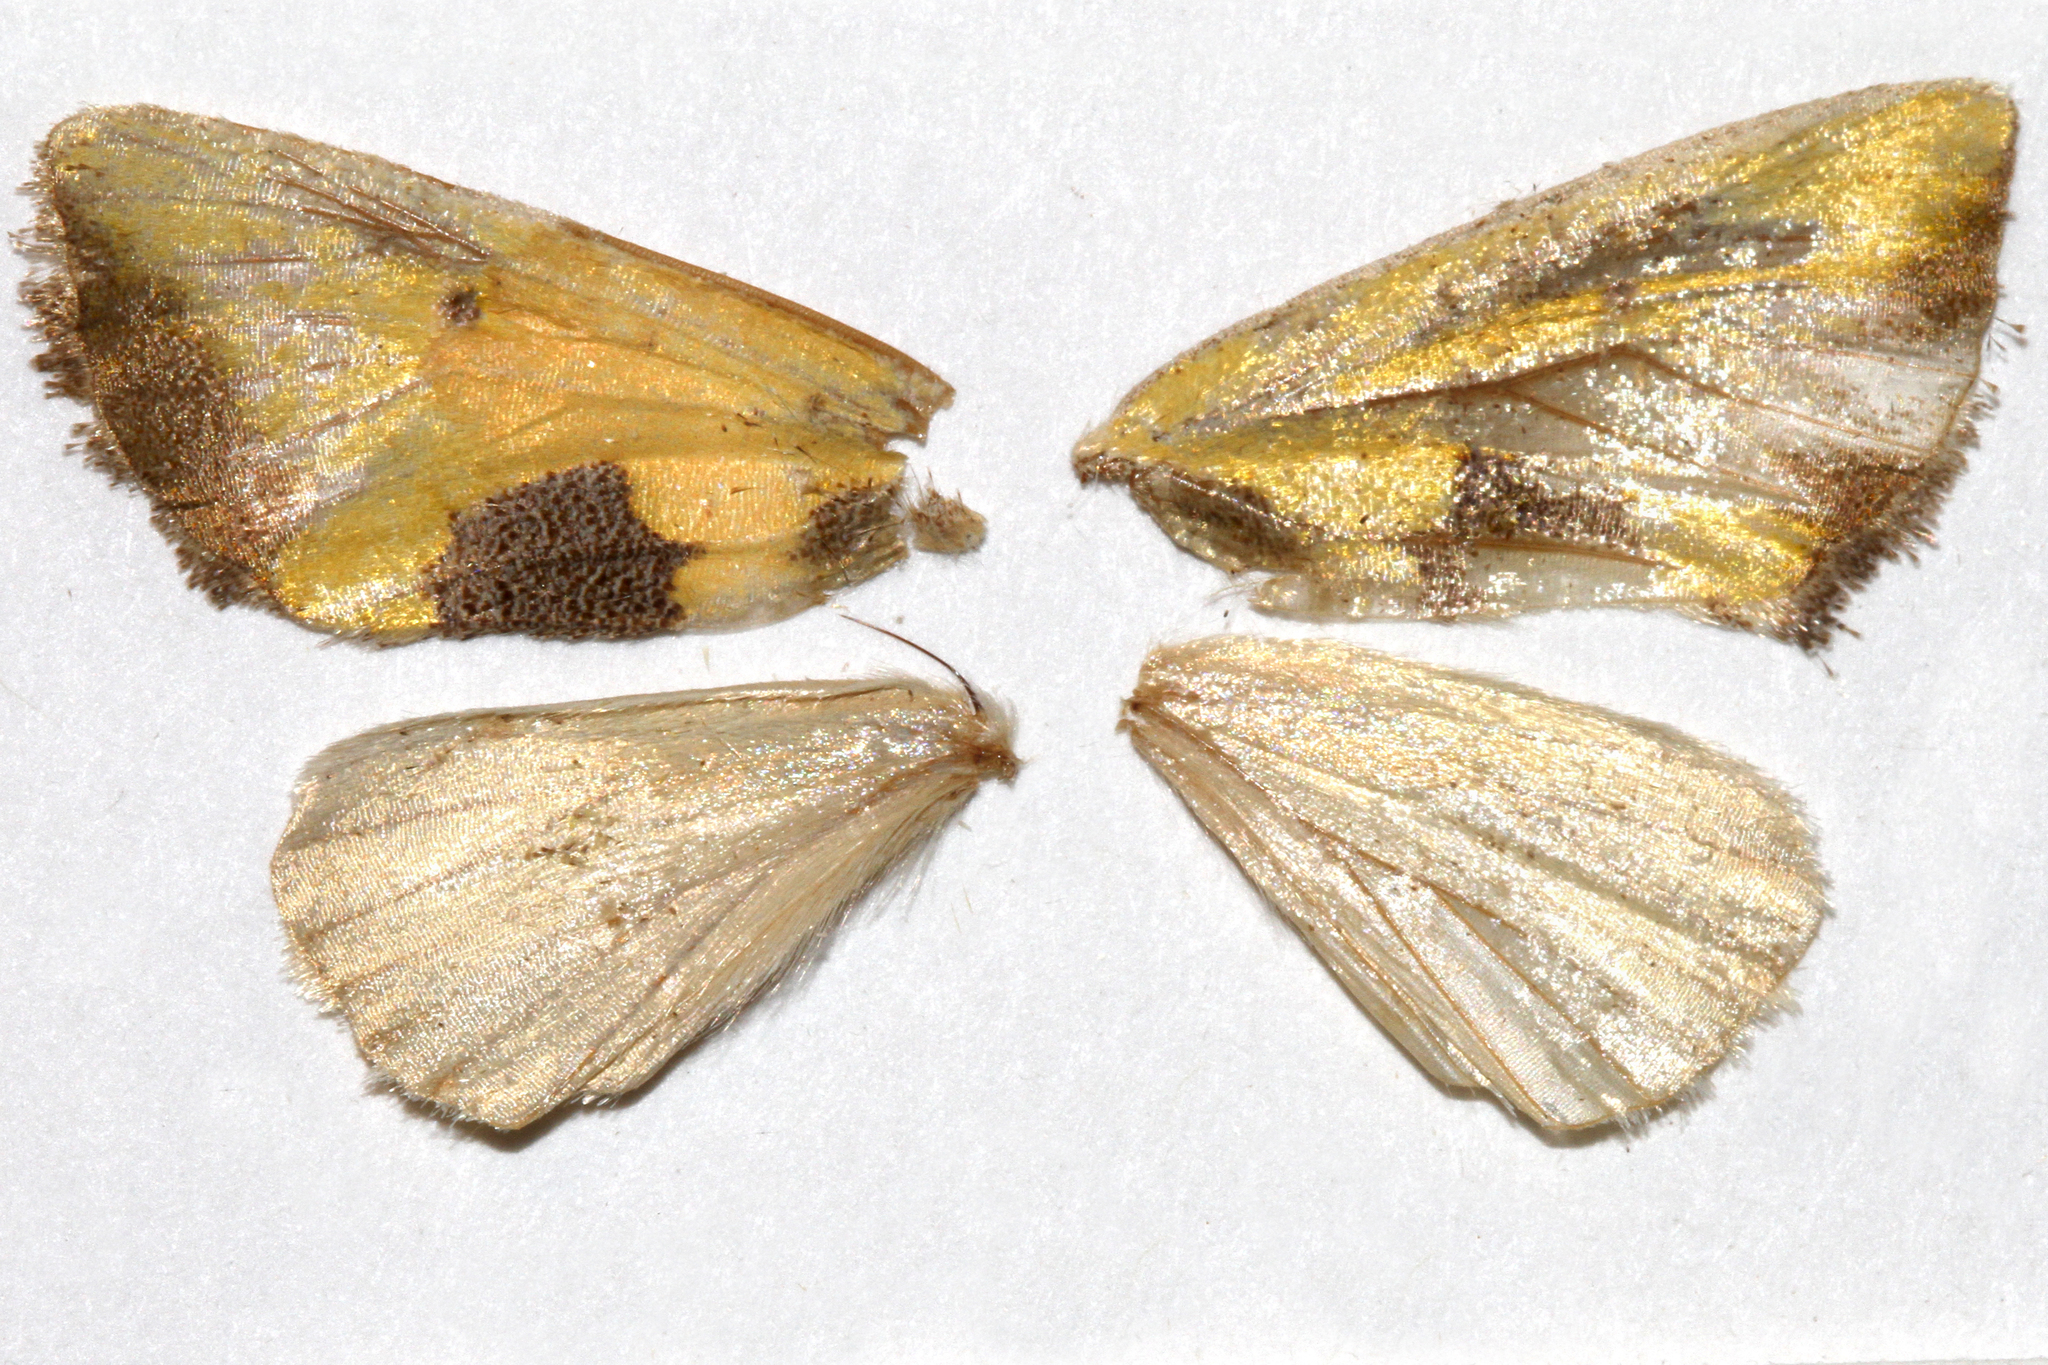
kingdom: Animalia
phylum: Arthropoda
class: Insecta
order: Lepidoptera
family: Noctuidae
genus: Stiria
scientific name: Stiria intermixta
